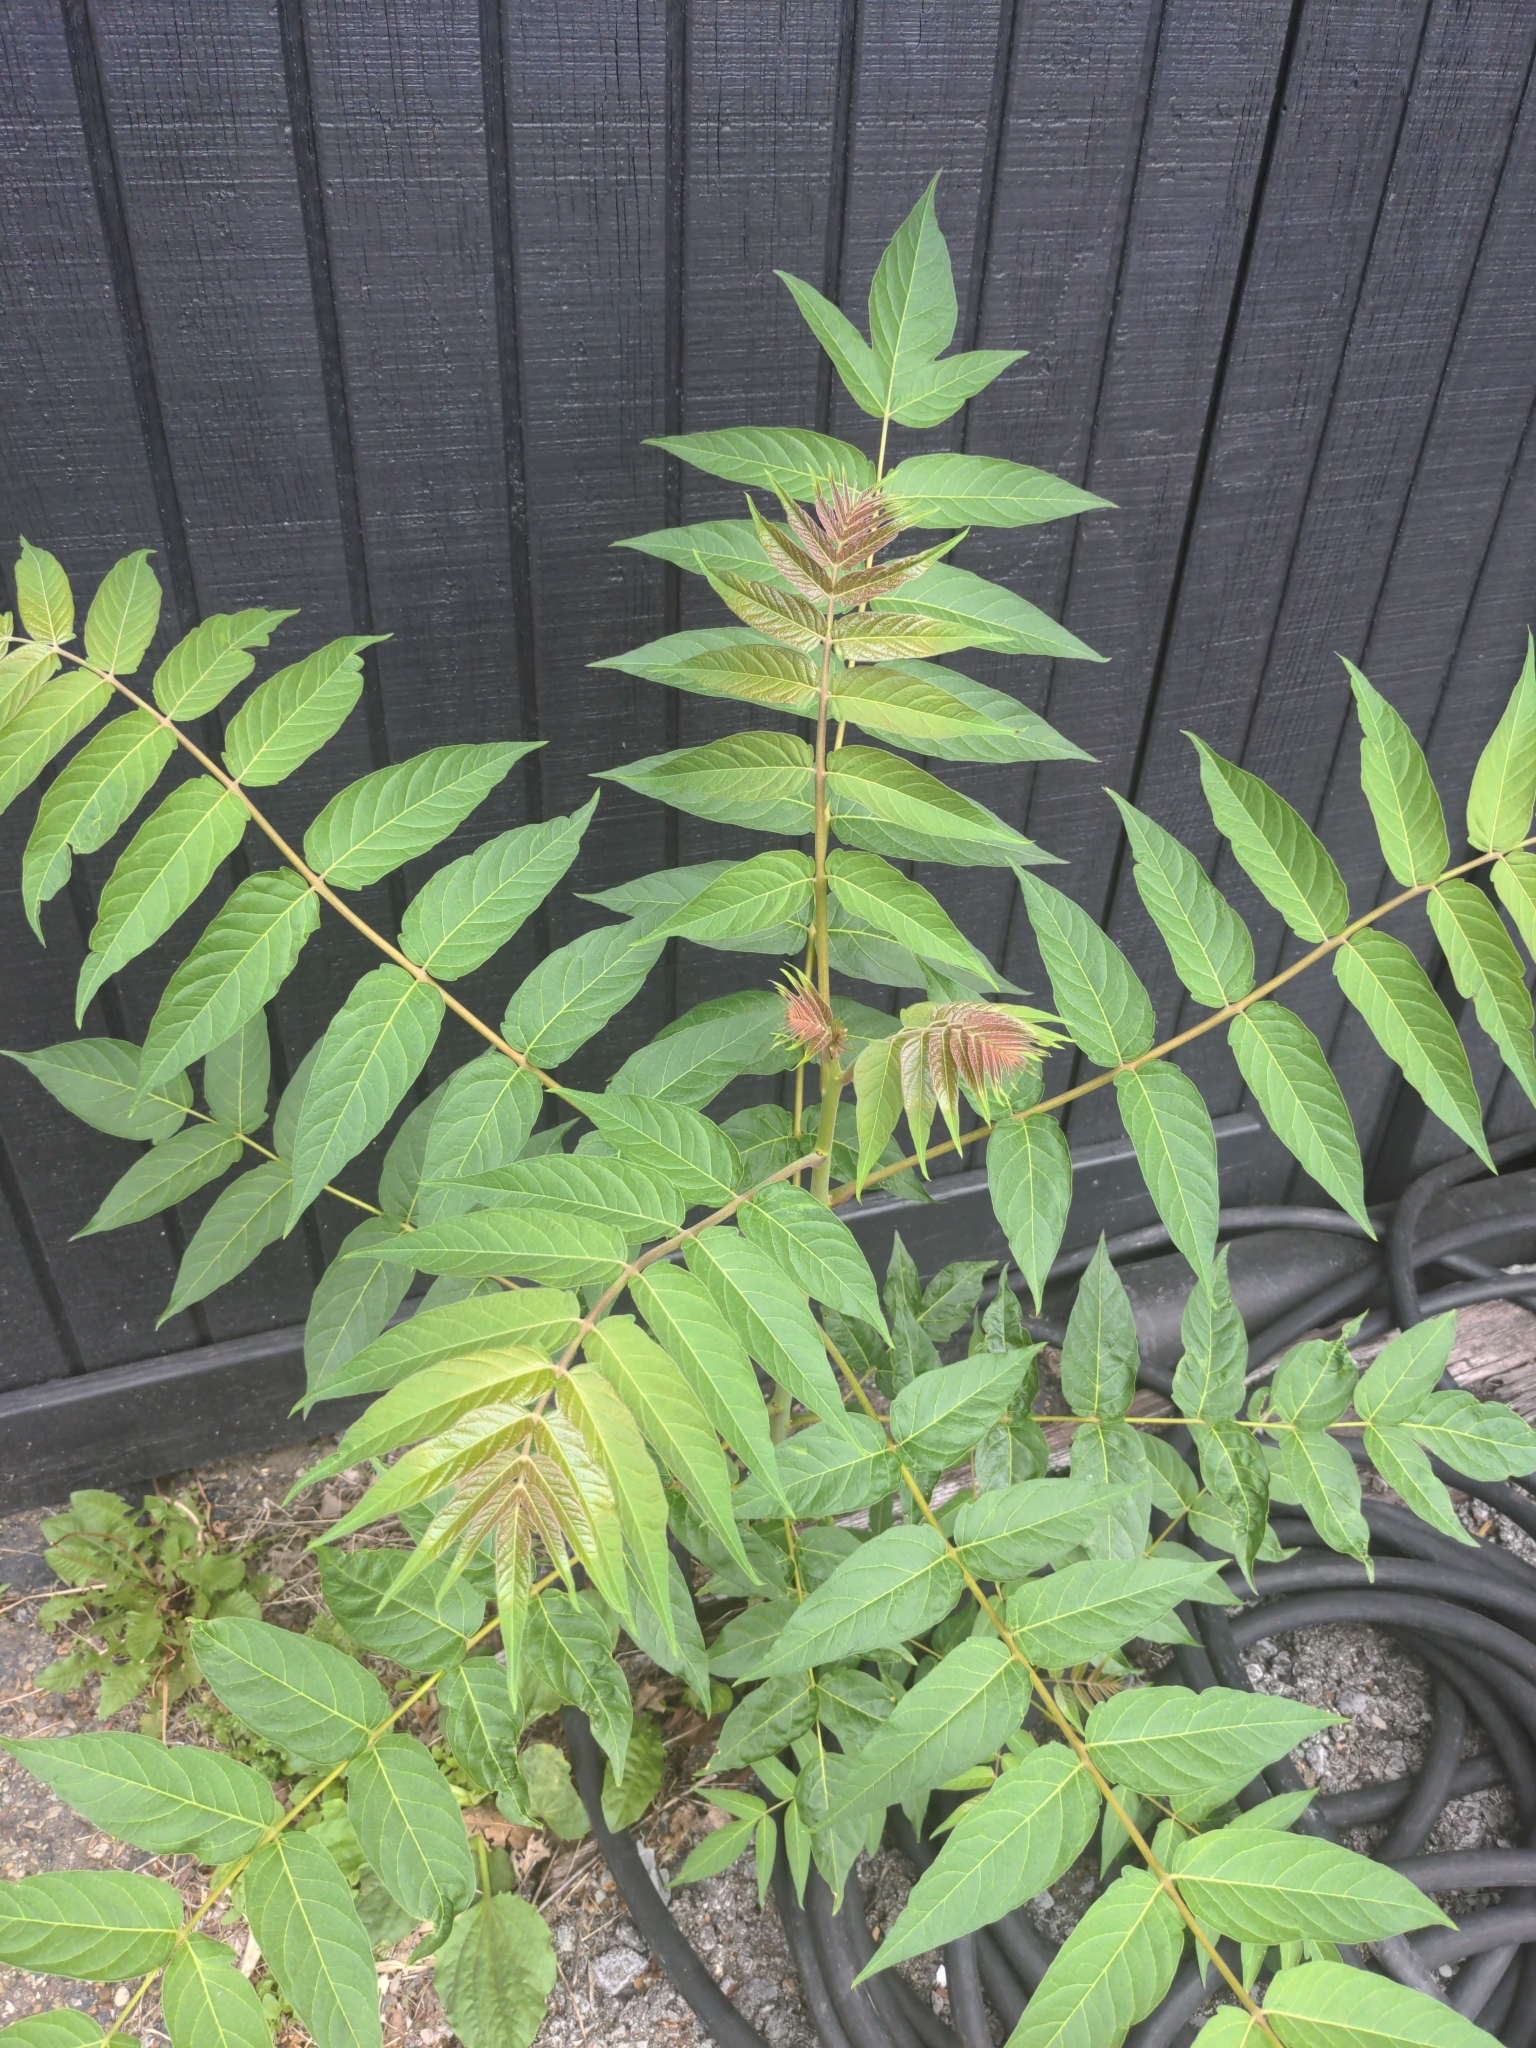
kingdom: Plantae
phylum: Tracheophyta
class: Magnoliopsida
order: Sapindales
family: Simaroubaceae
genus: Ailanthus
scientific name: Ailanthus altissima
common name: Tree-of-heaven
